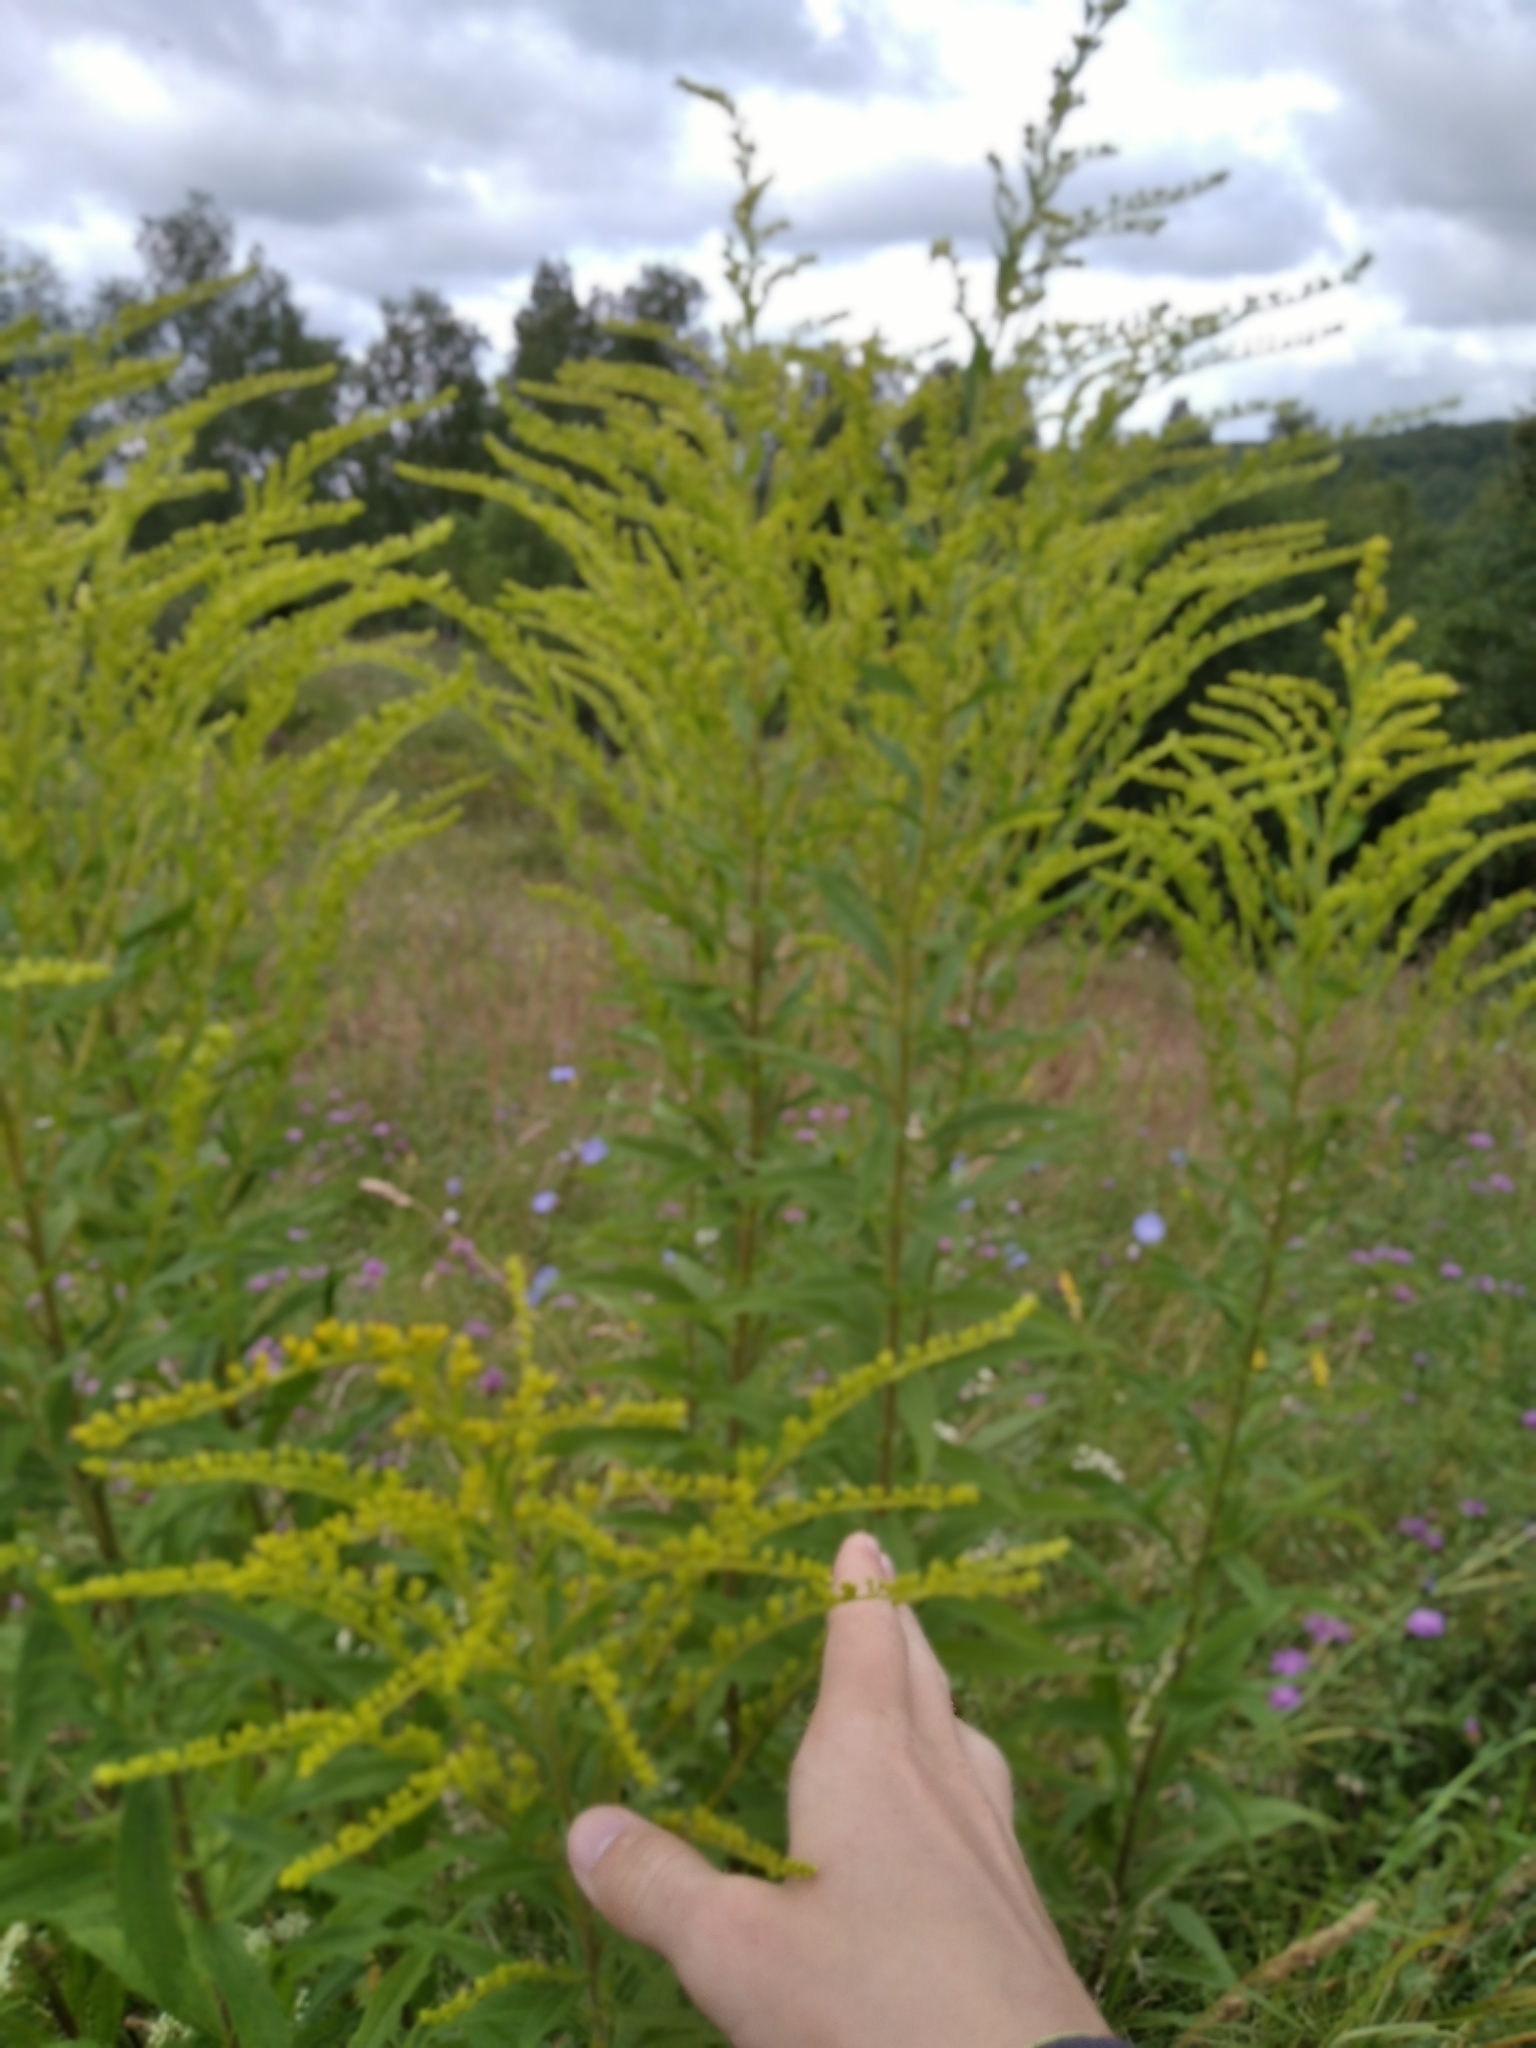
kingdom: Plantae
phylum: Tracheophyta
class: Magnoliopsida
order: Asterales
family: Asteraceae
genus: Solidago
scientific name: Solidago canadensis
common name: Canada goldenrod
